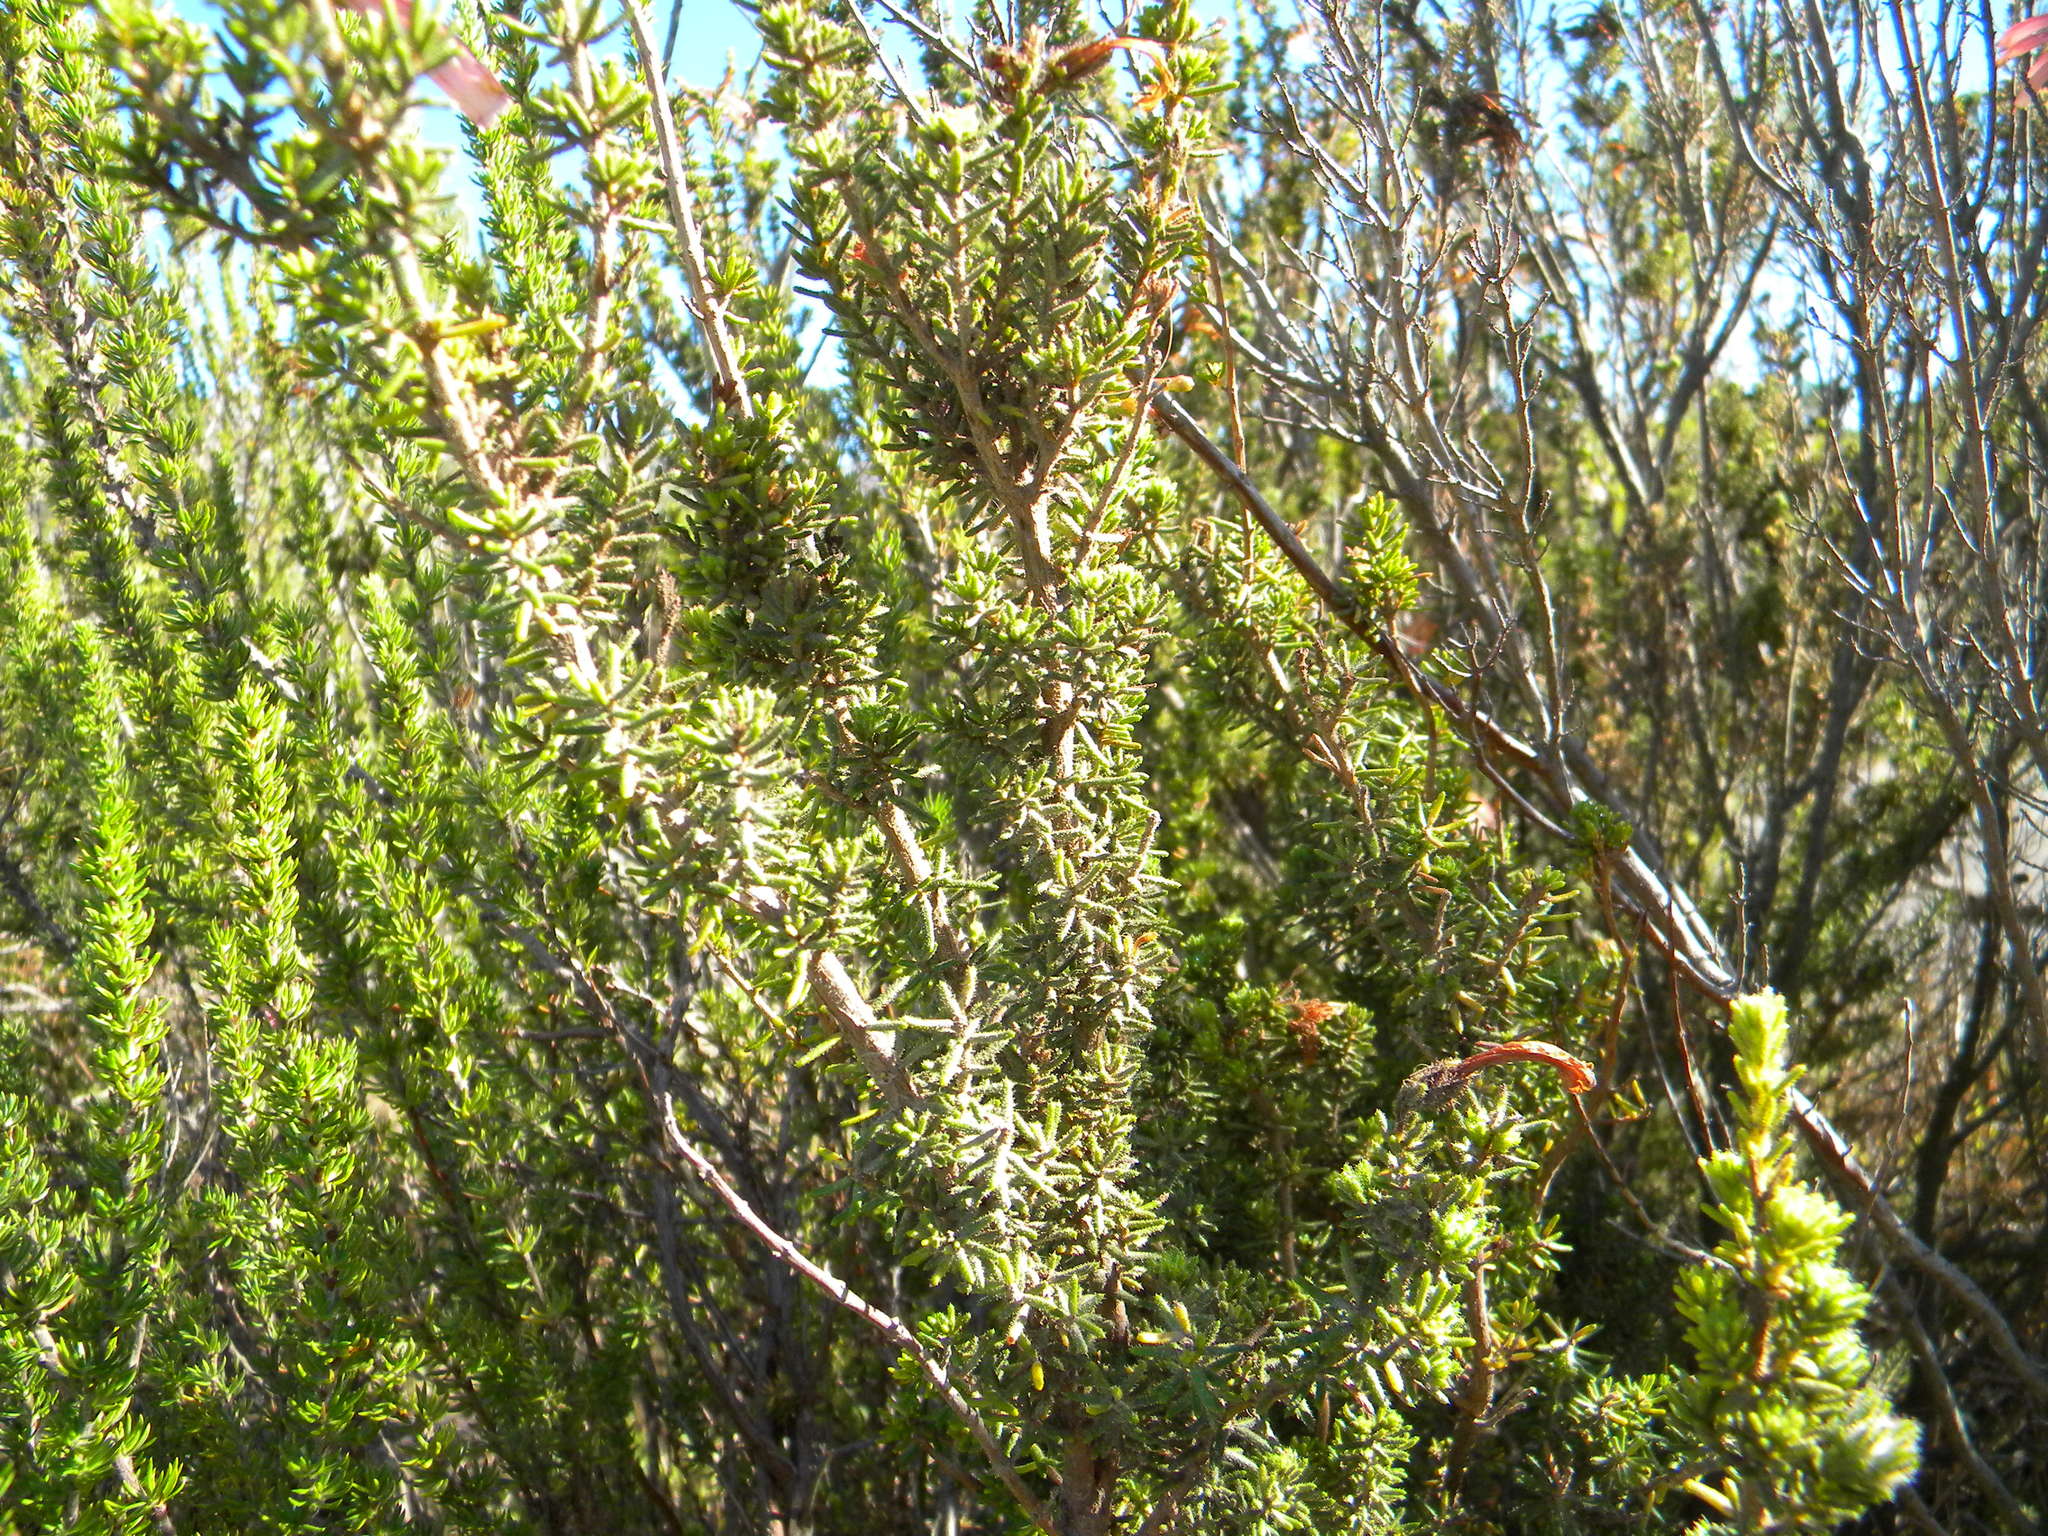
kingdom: Plantae
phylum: Tracheophyta
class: Magnoliopsida
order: Ericales
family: Ericaceae
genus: Erica
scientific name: Erica glandulosa
